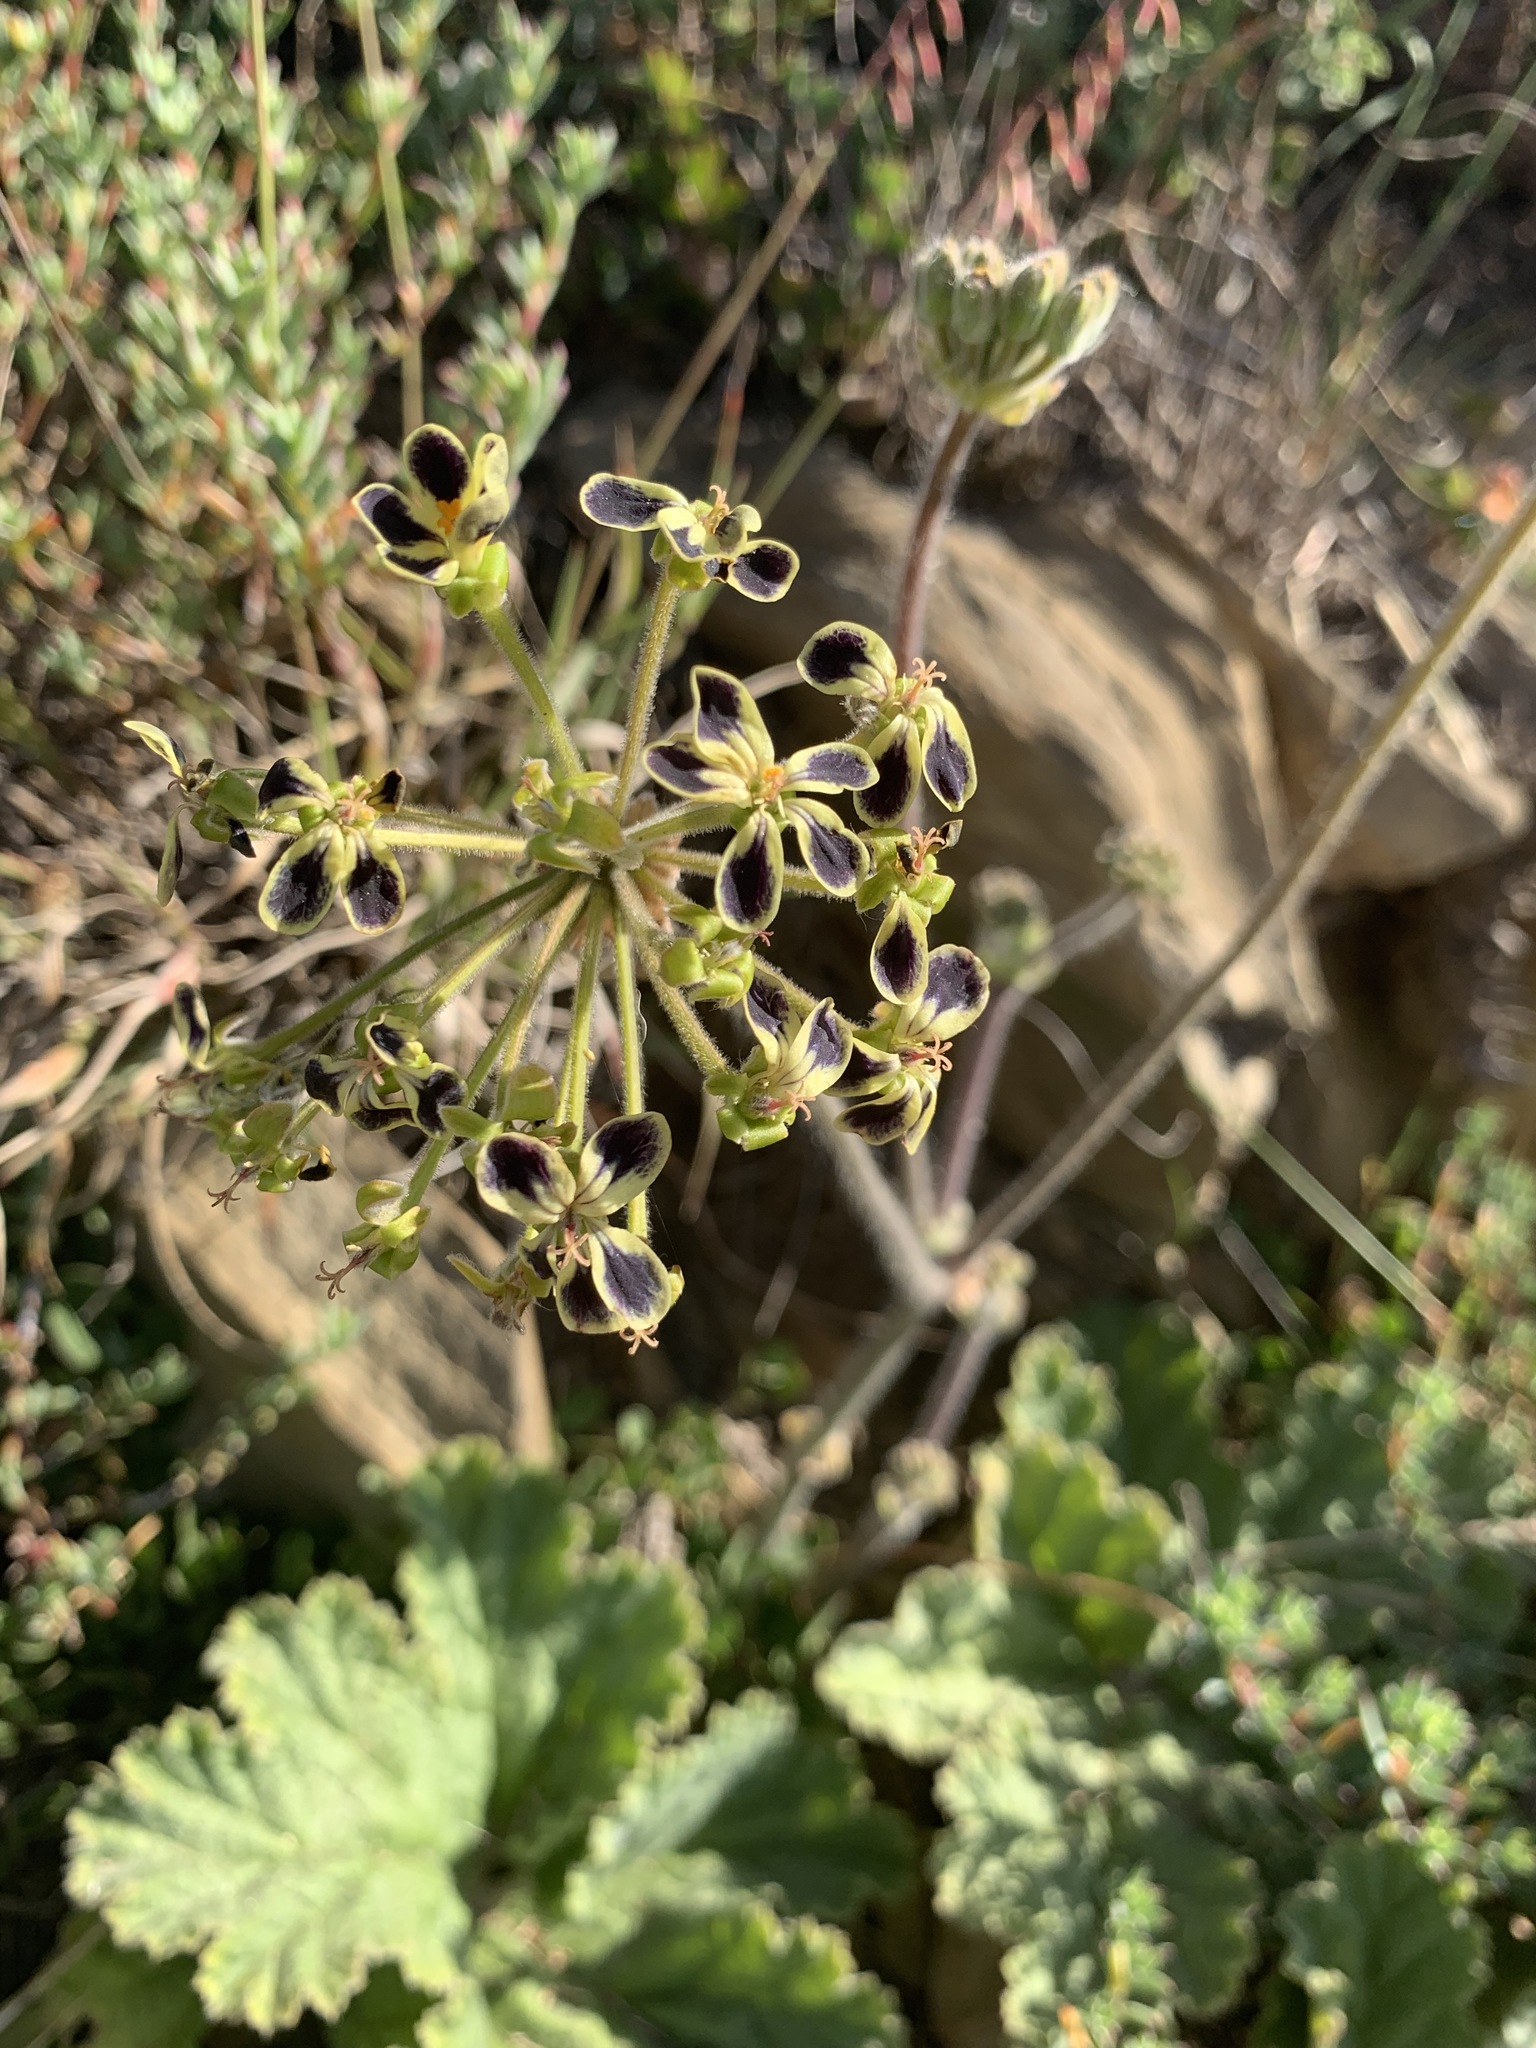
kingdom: Plantae
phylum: Tracheophyta
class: Magnoliopsida
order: Geraniales
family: Geraniaceae
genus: Pelargonium
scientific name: Pelargonium lobatum
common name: Vine-leaf pelargonium
